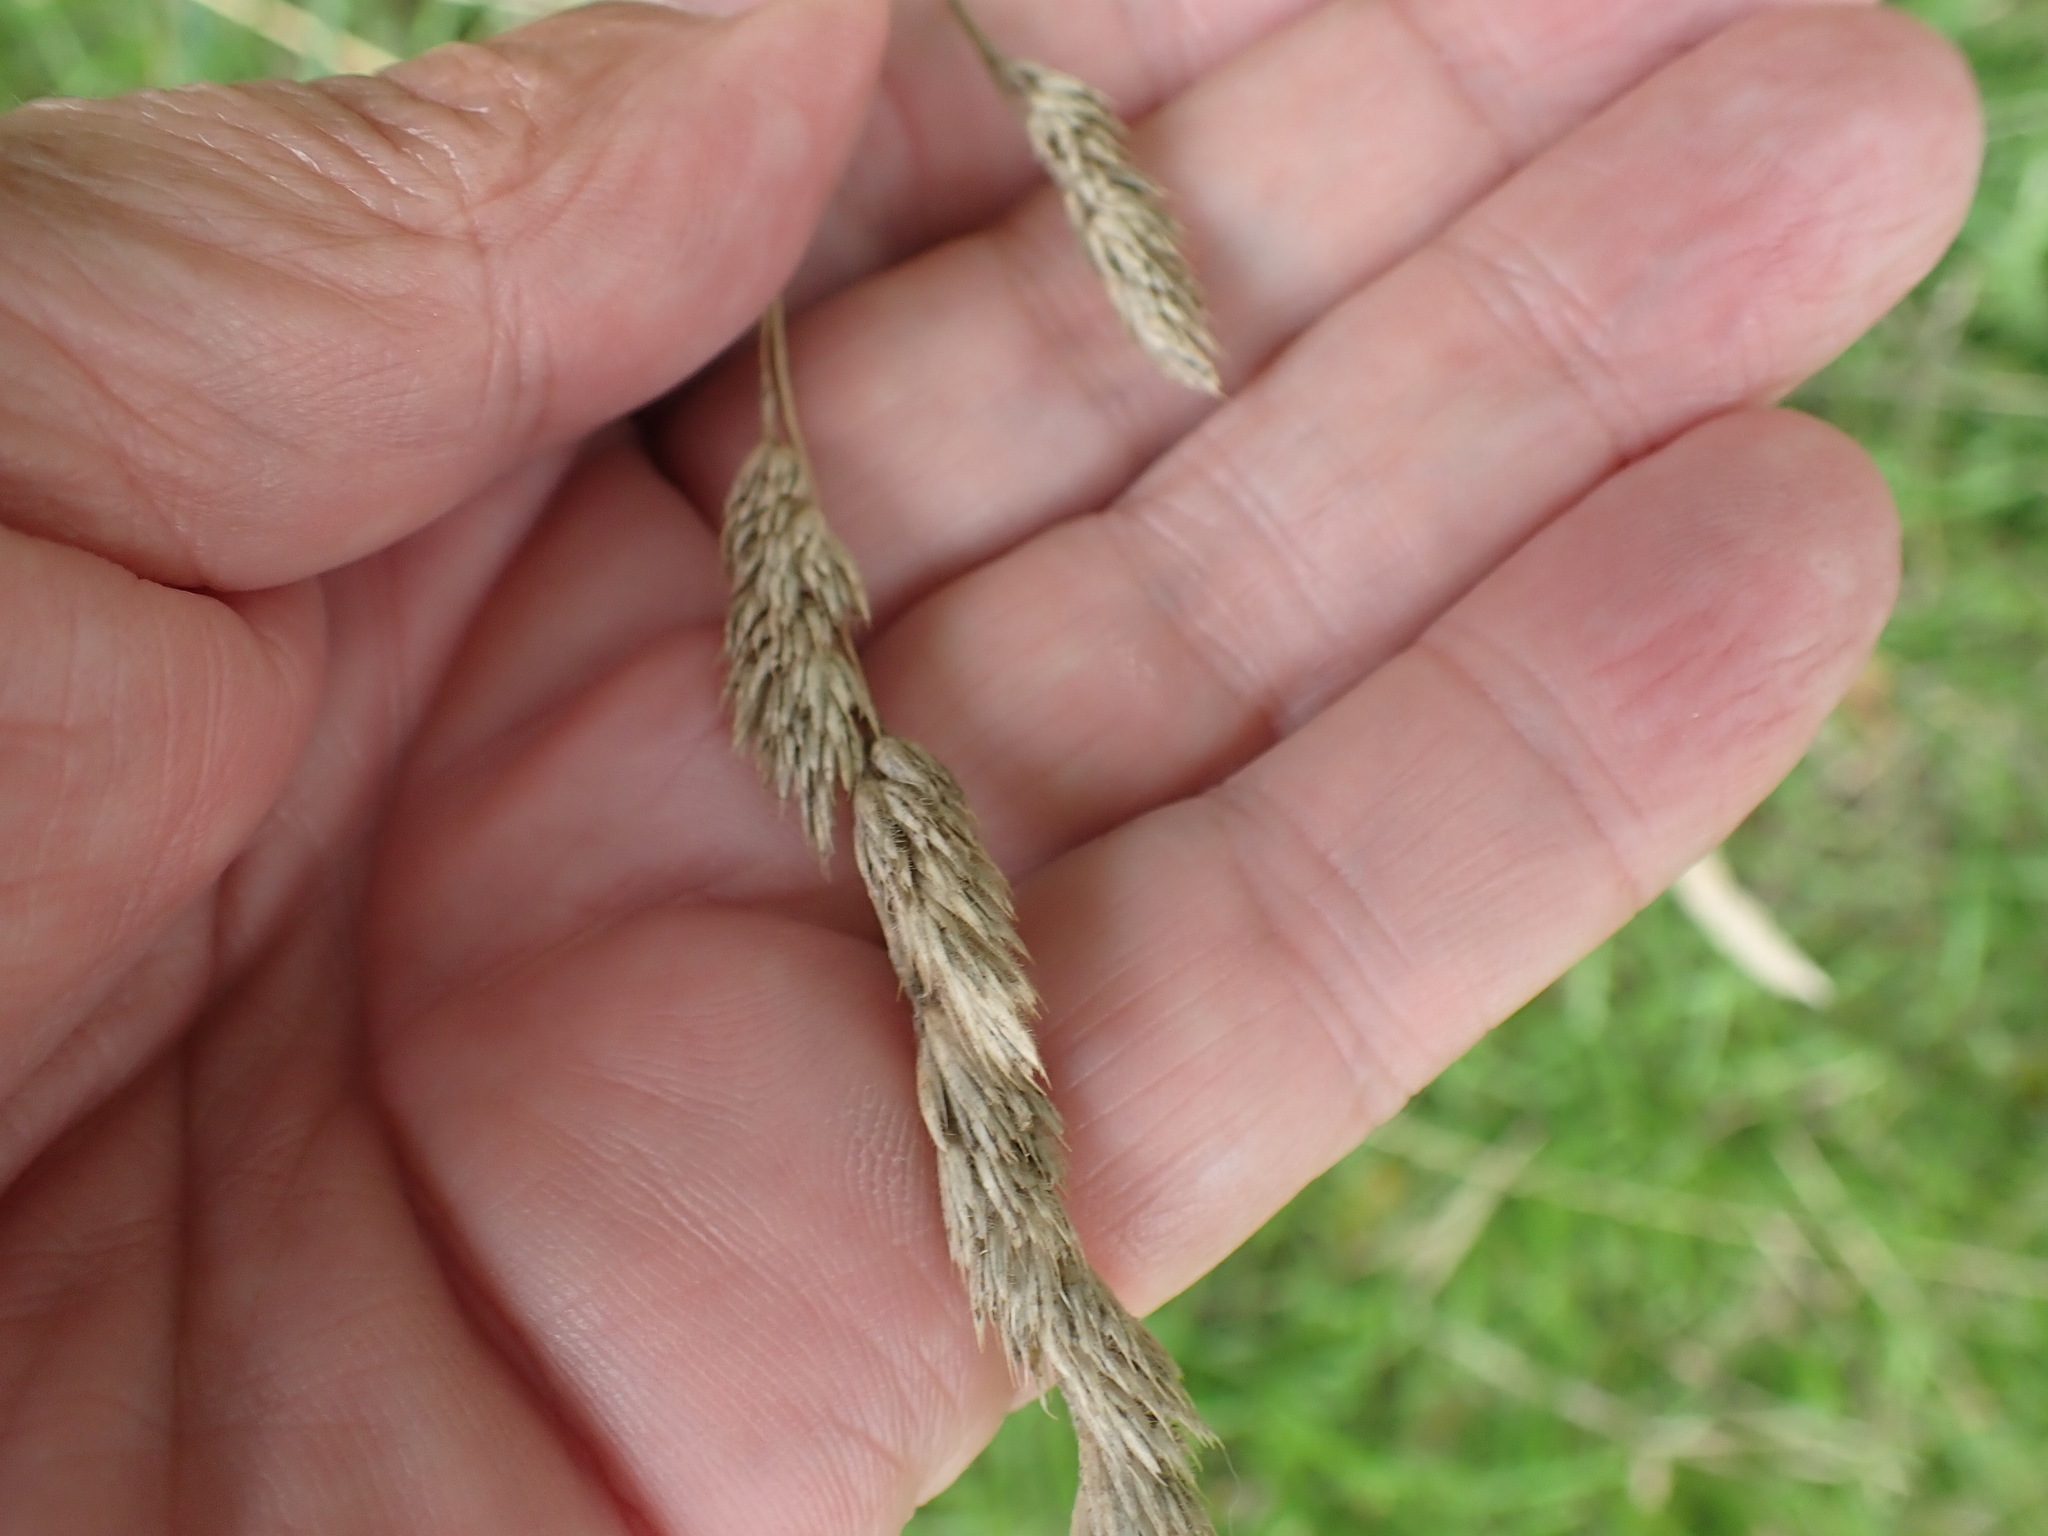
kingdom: Plantae
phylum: Tracheophyta
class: Liliopsida
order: Poales
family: Poaceae
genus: Dactylis
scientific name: Dactylis glomerata
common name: Orchardgrass
